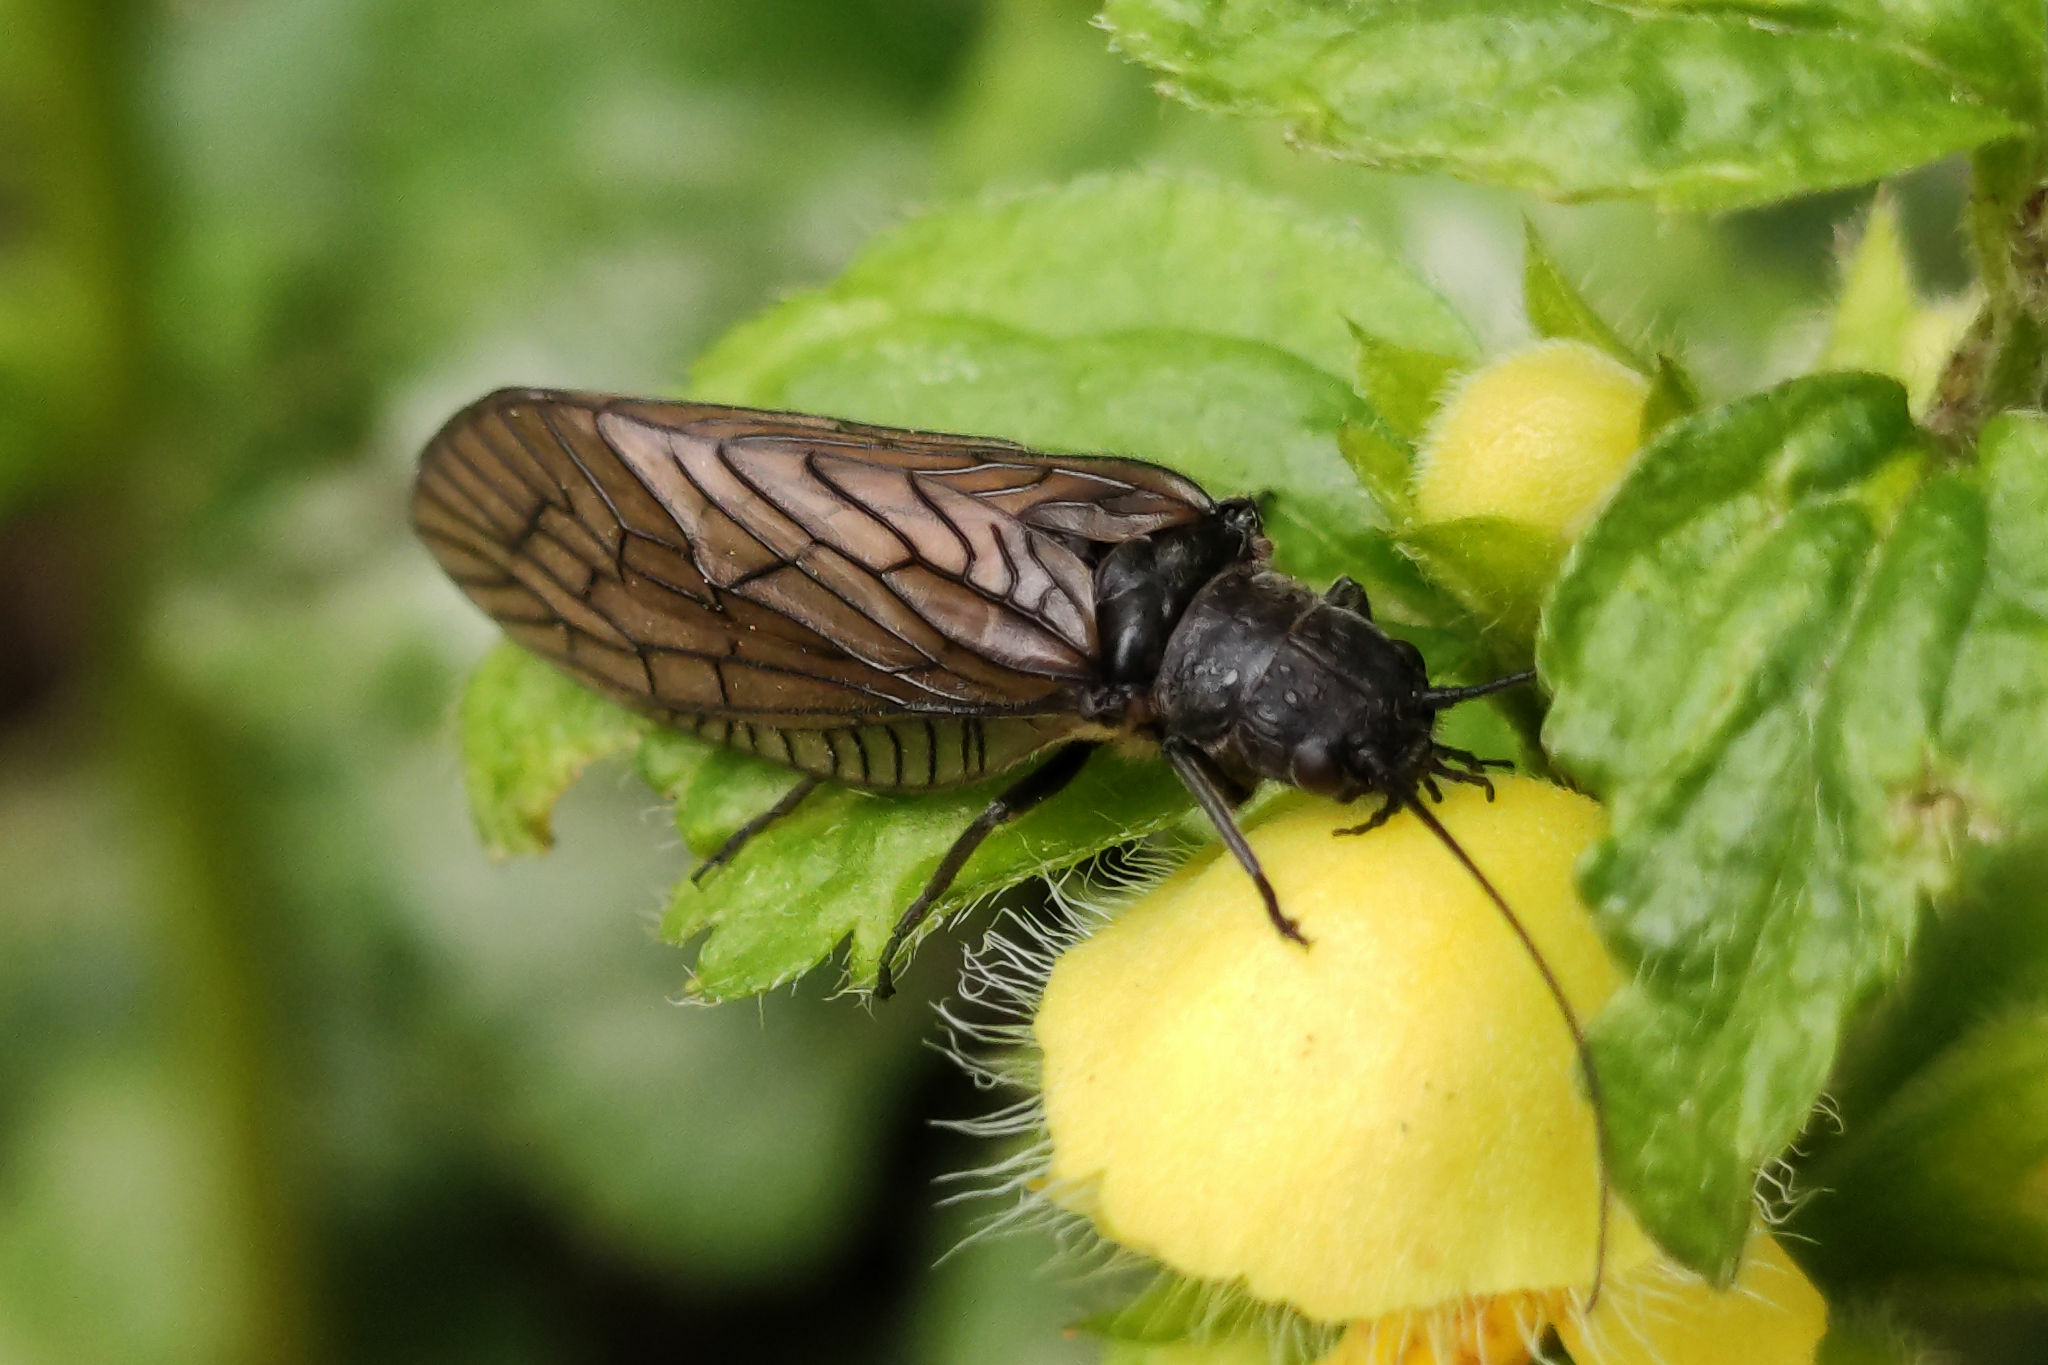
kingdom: Animalia
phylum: Arthropoda
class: Insecta
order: Megaloptera
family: Sialidae
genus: Sialis
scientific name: Sialis
